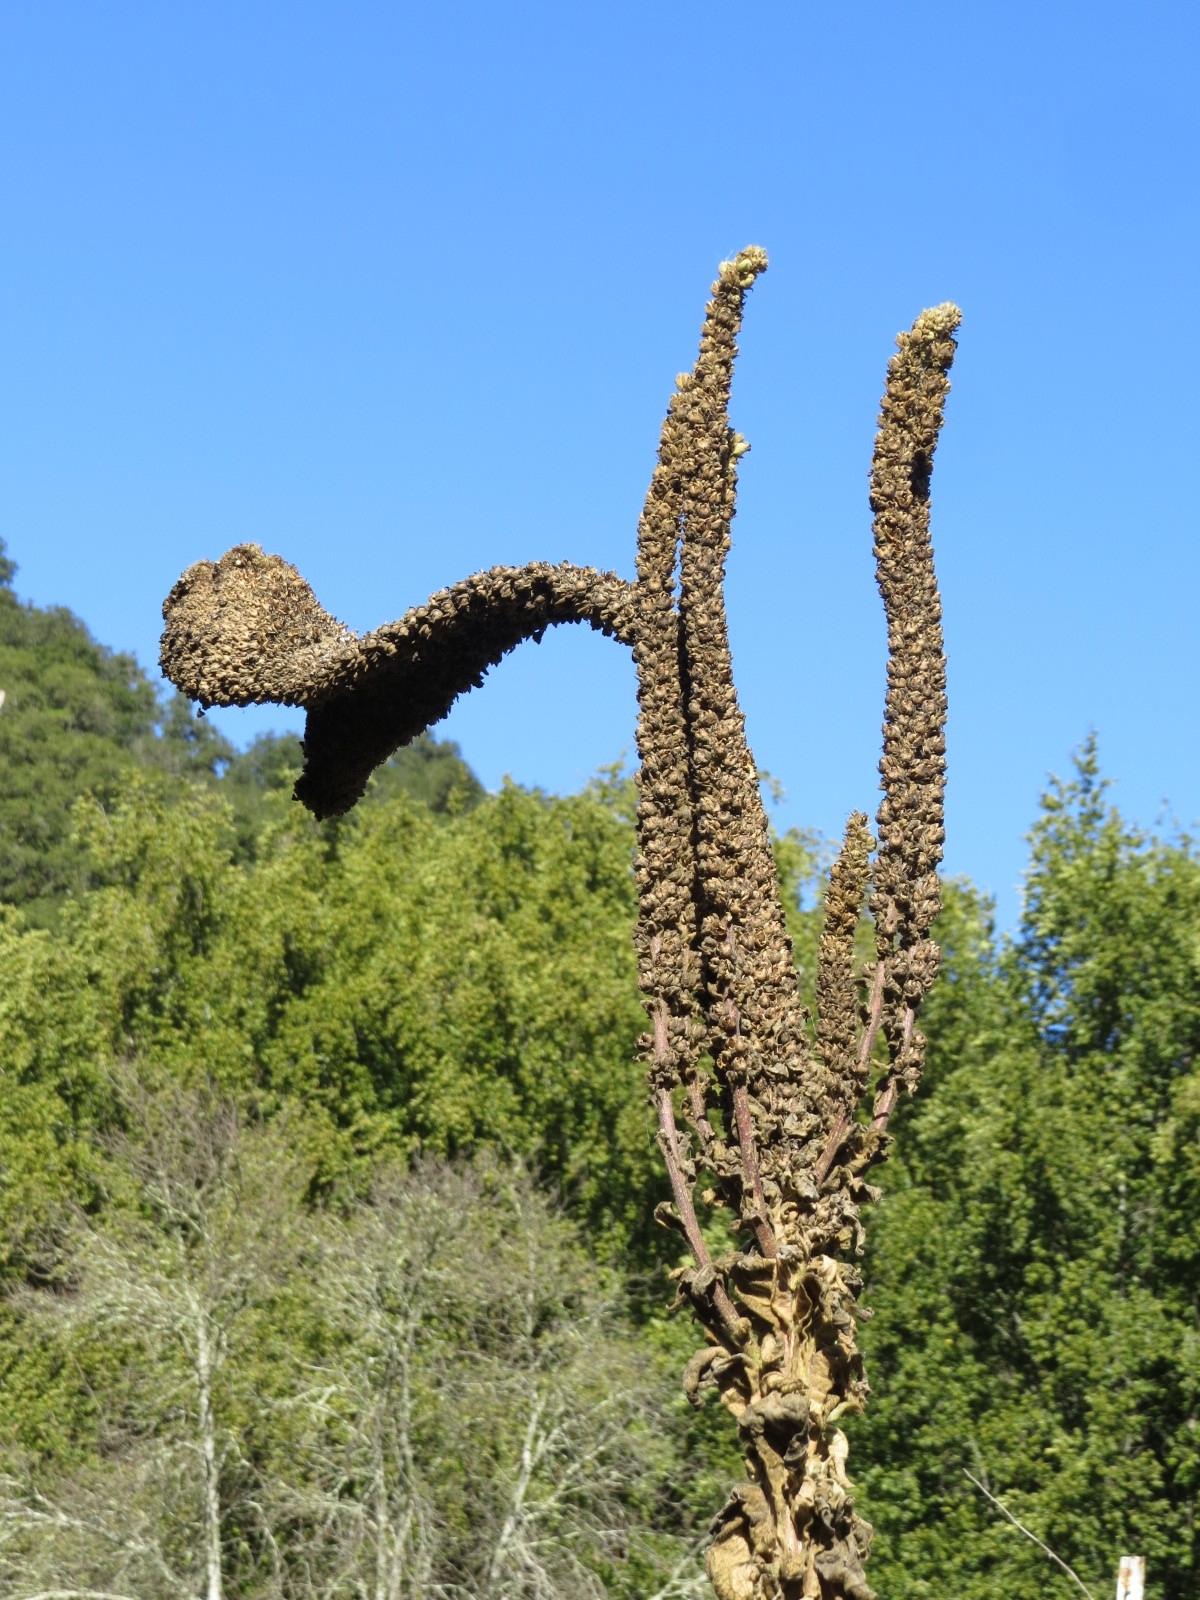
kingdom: Plantae
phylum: Tracheophyta
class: Magnoliopsida
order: Lamiales
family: Scrophulariaceae
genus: Verbascum
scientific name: Verbascum thapsus
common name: Common mullein
